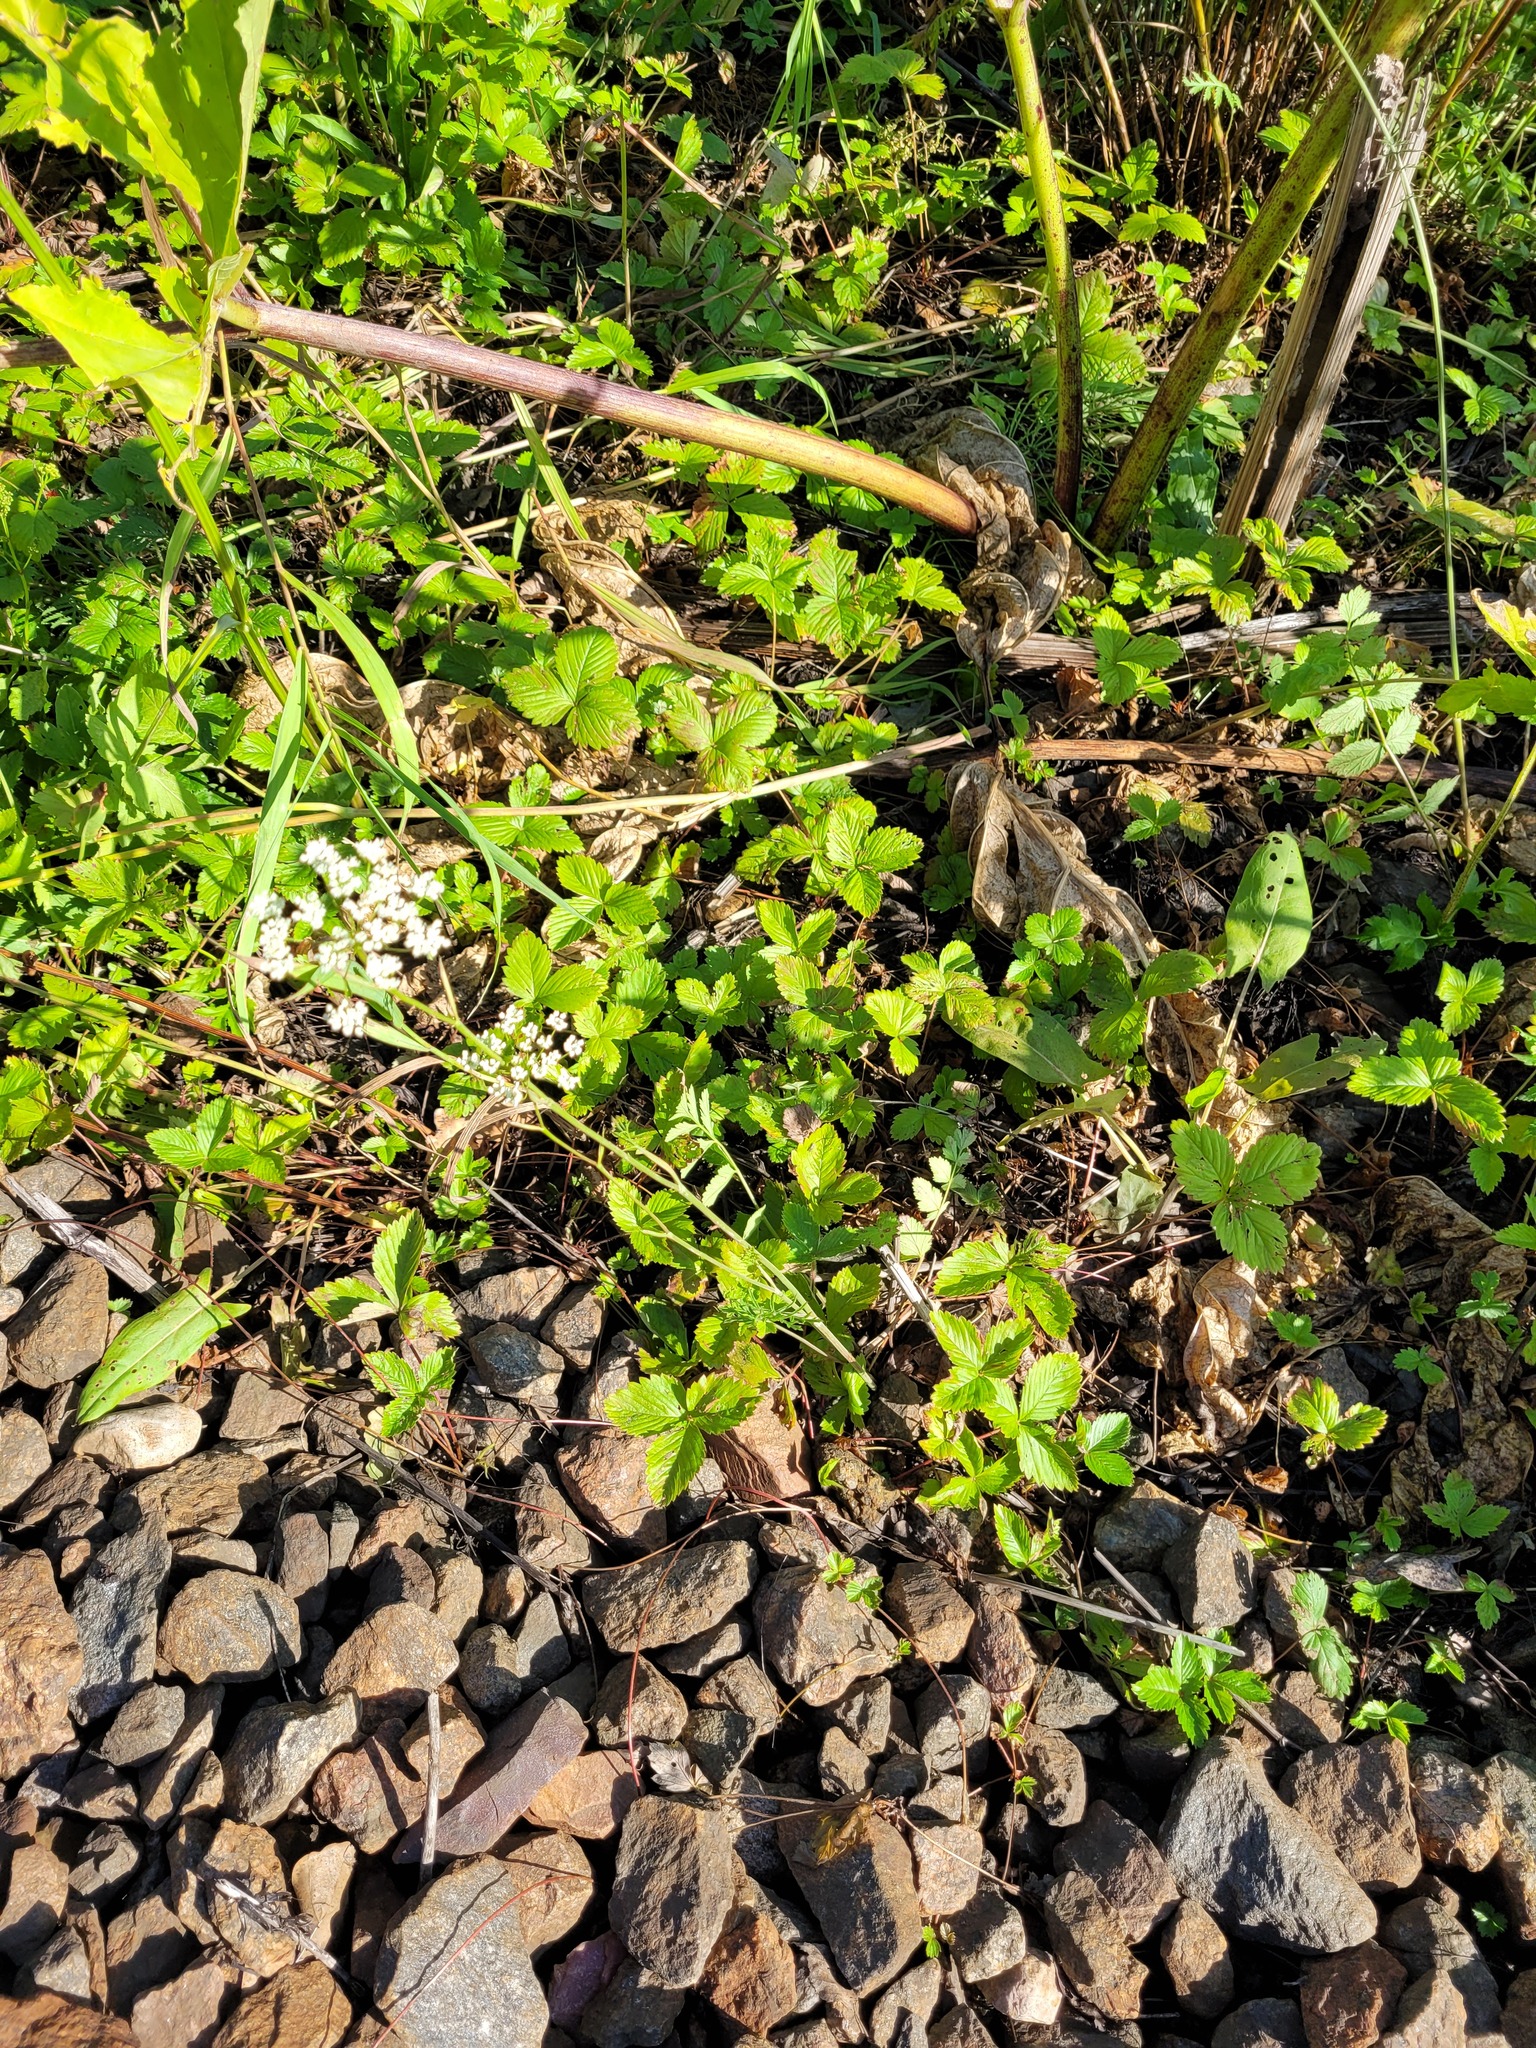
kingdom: Plantae
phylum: Tracheophyta
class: Magnoliopsida
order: Apiales
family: Apiaceae
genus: Pimpinella
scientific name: Pimpinella saxifraga
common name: Burnet-saxifrage
